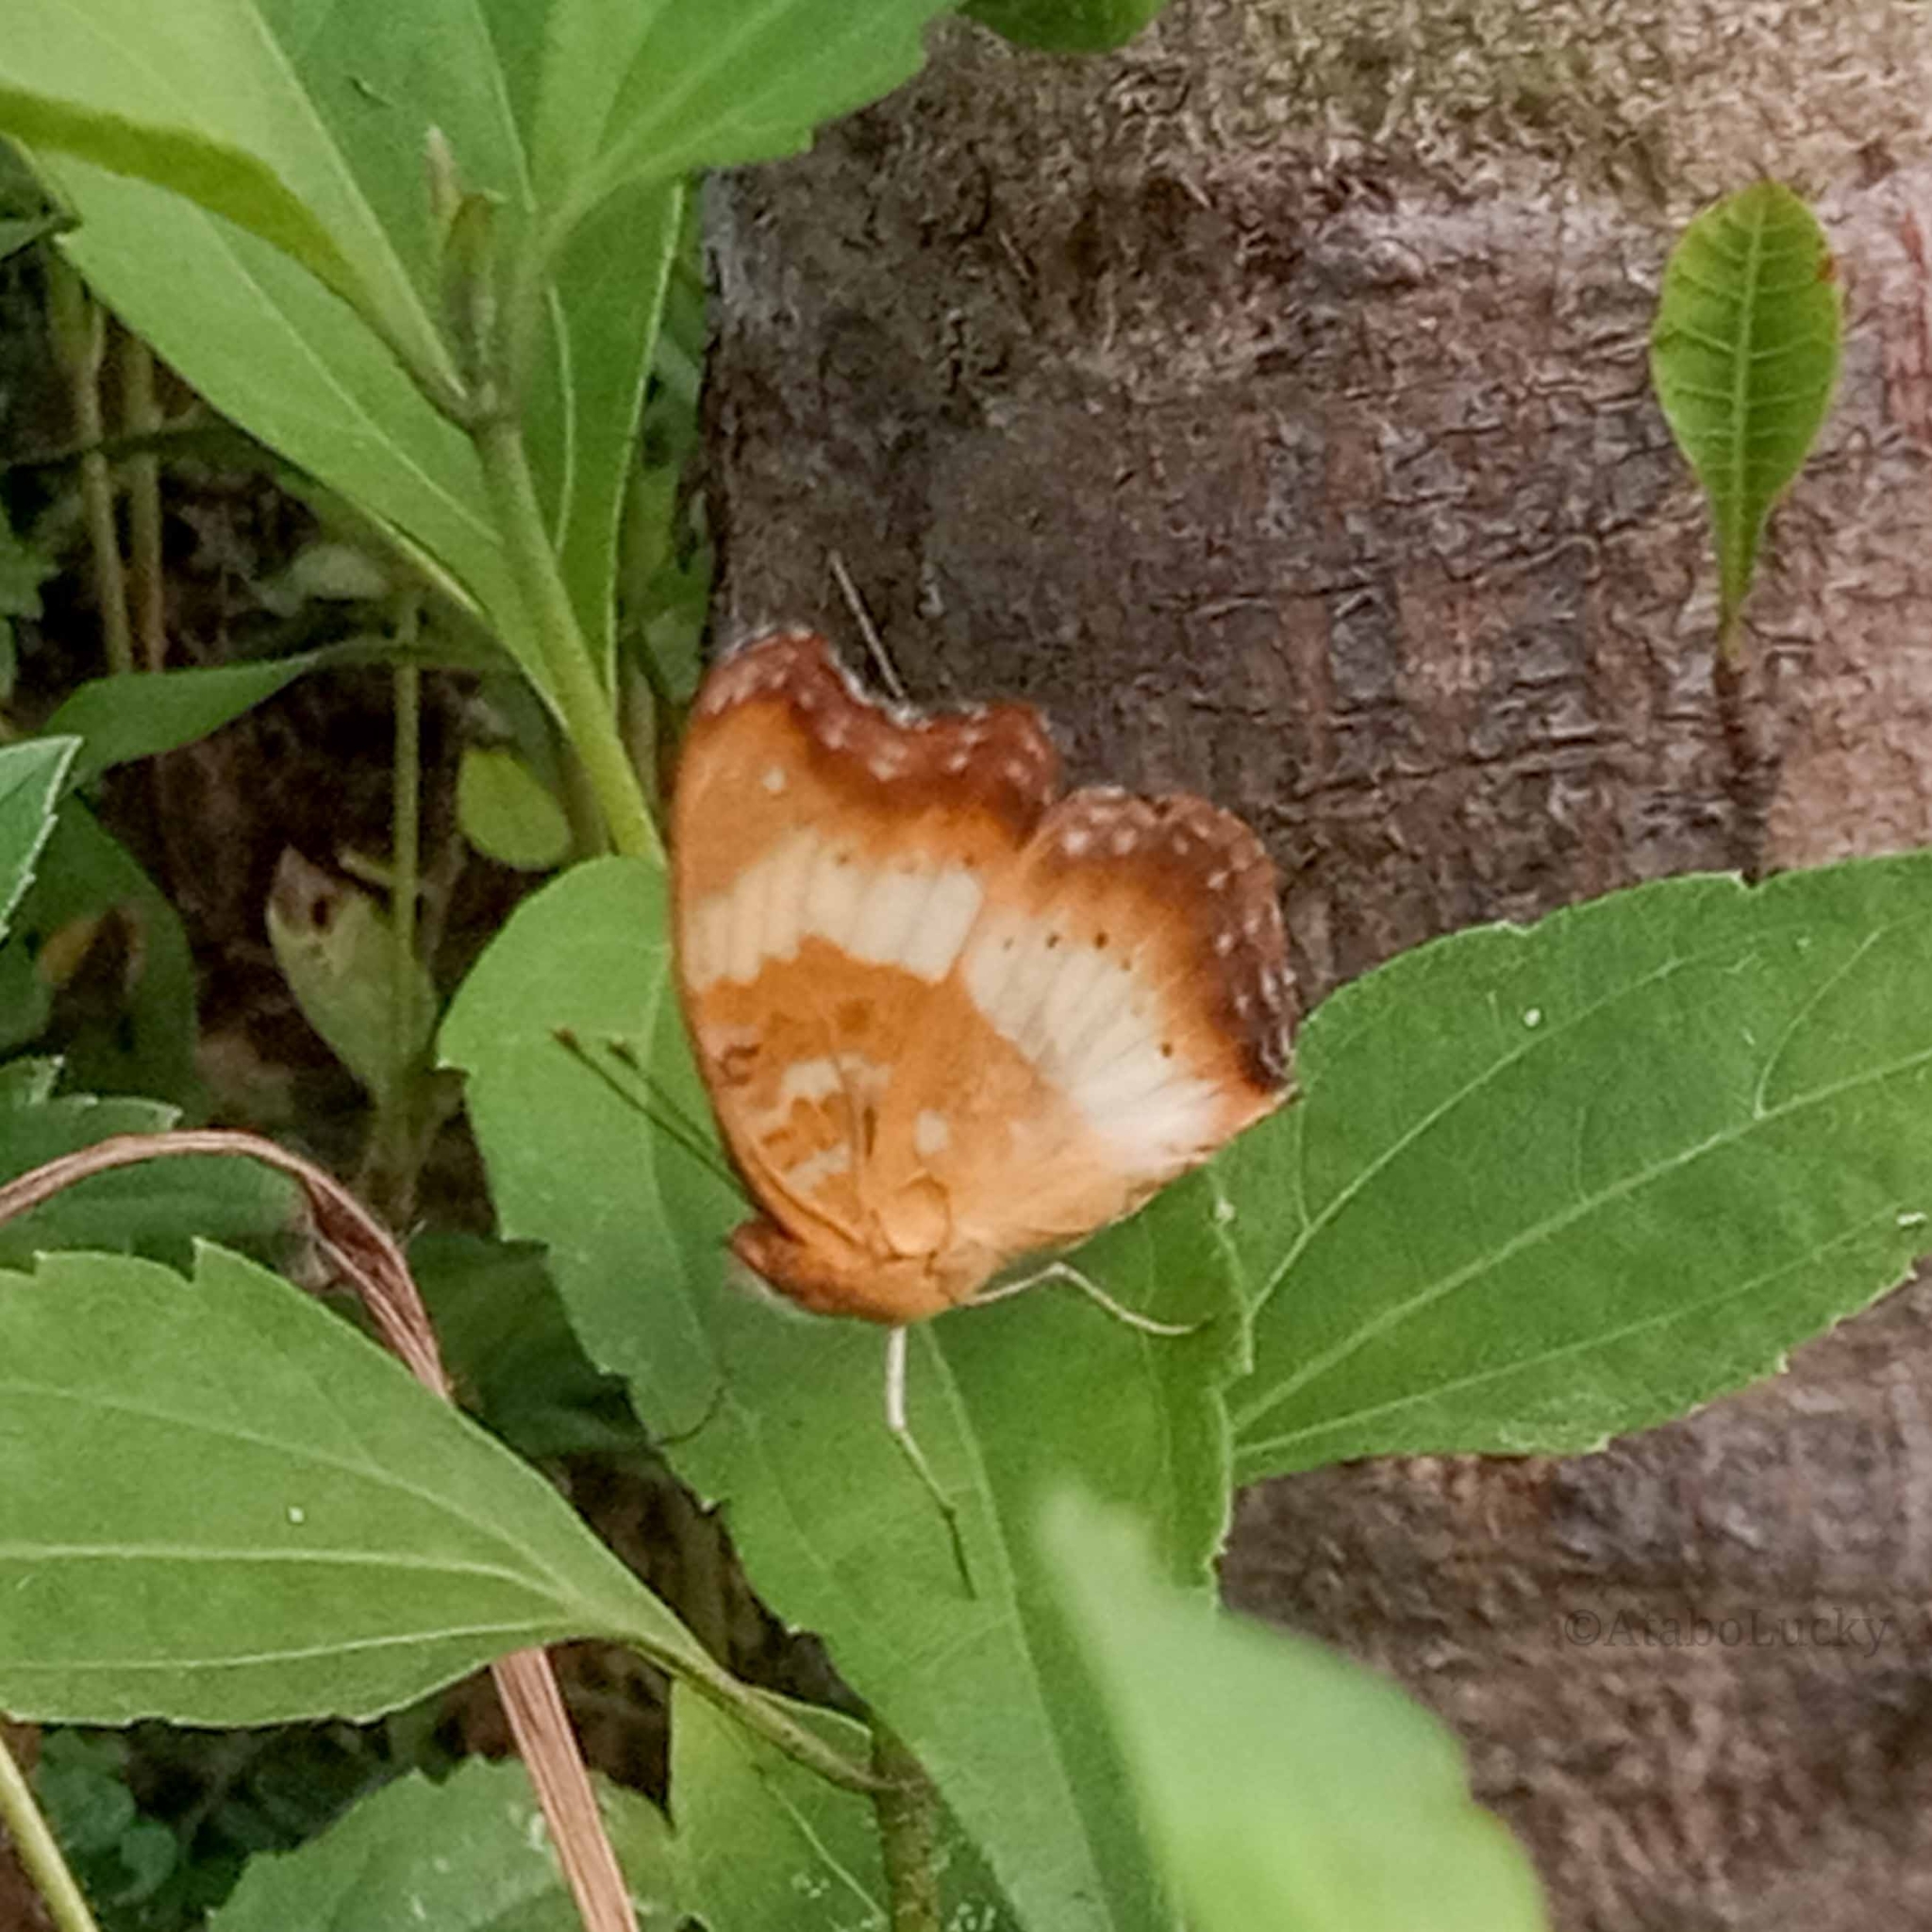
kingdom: Animalia
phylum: Arthropoda
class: Insecta
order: Lepidoptera
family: Nymphalidae
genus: Precis
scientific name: Precis pelarga
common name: Fashion commodore
